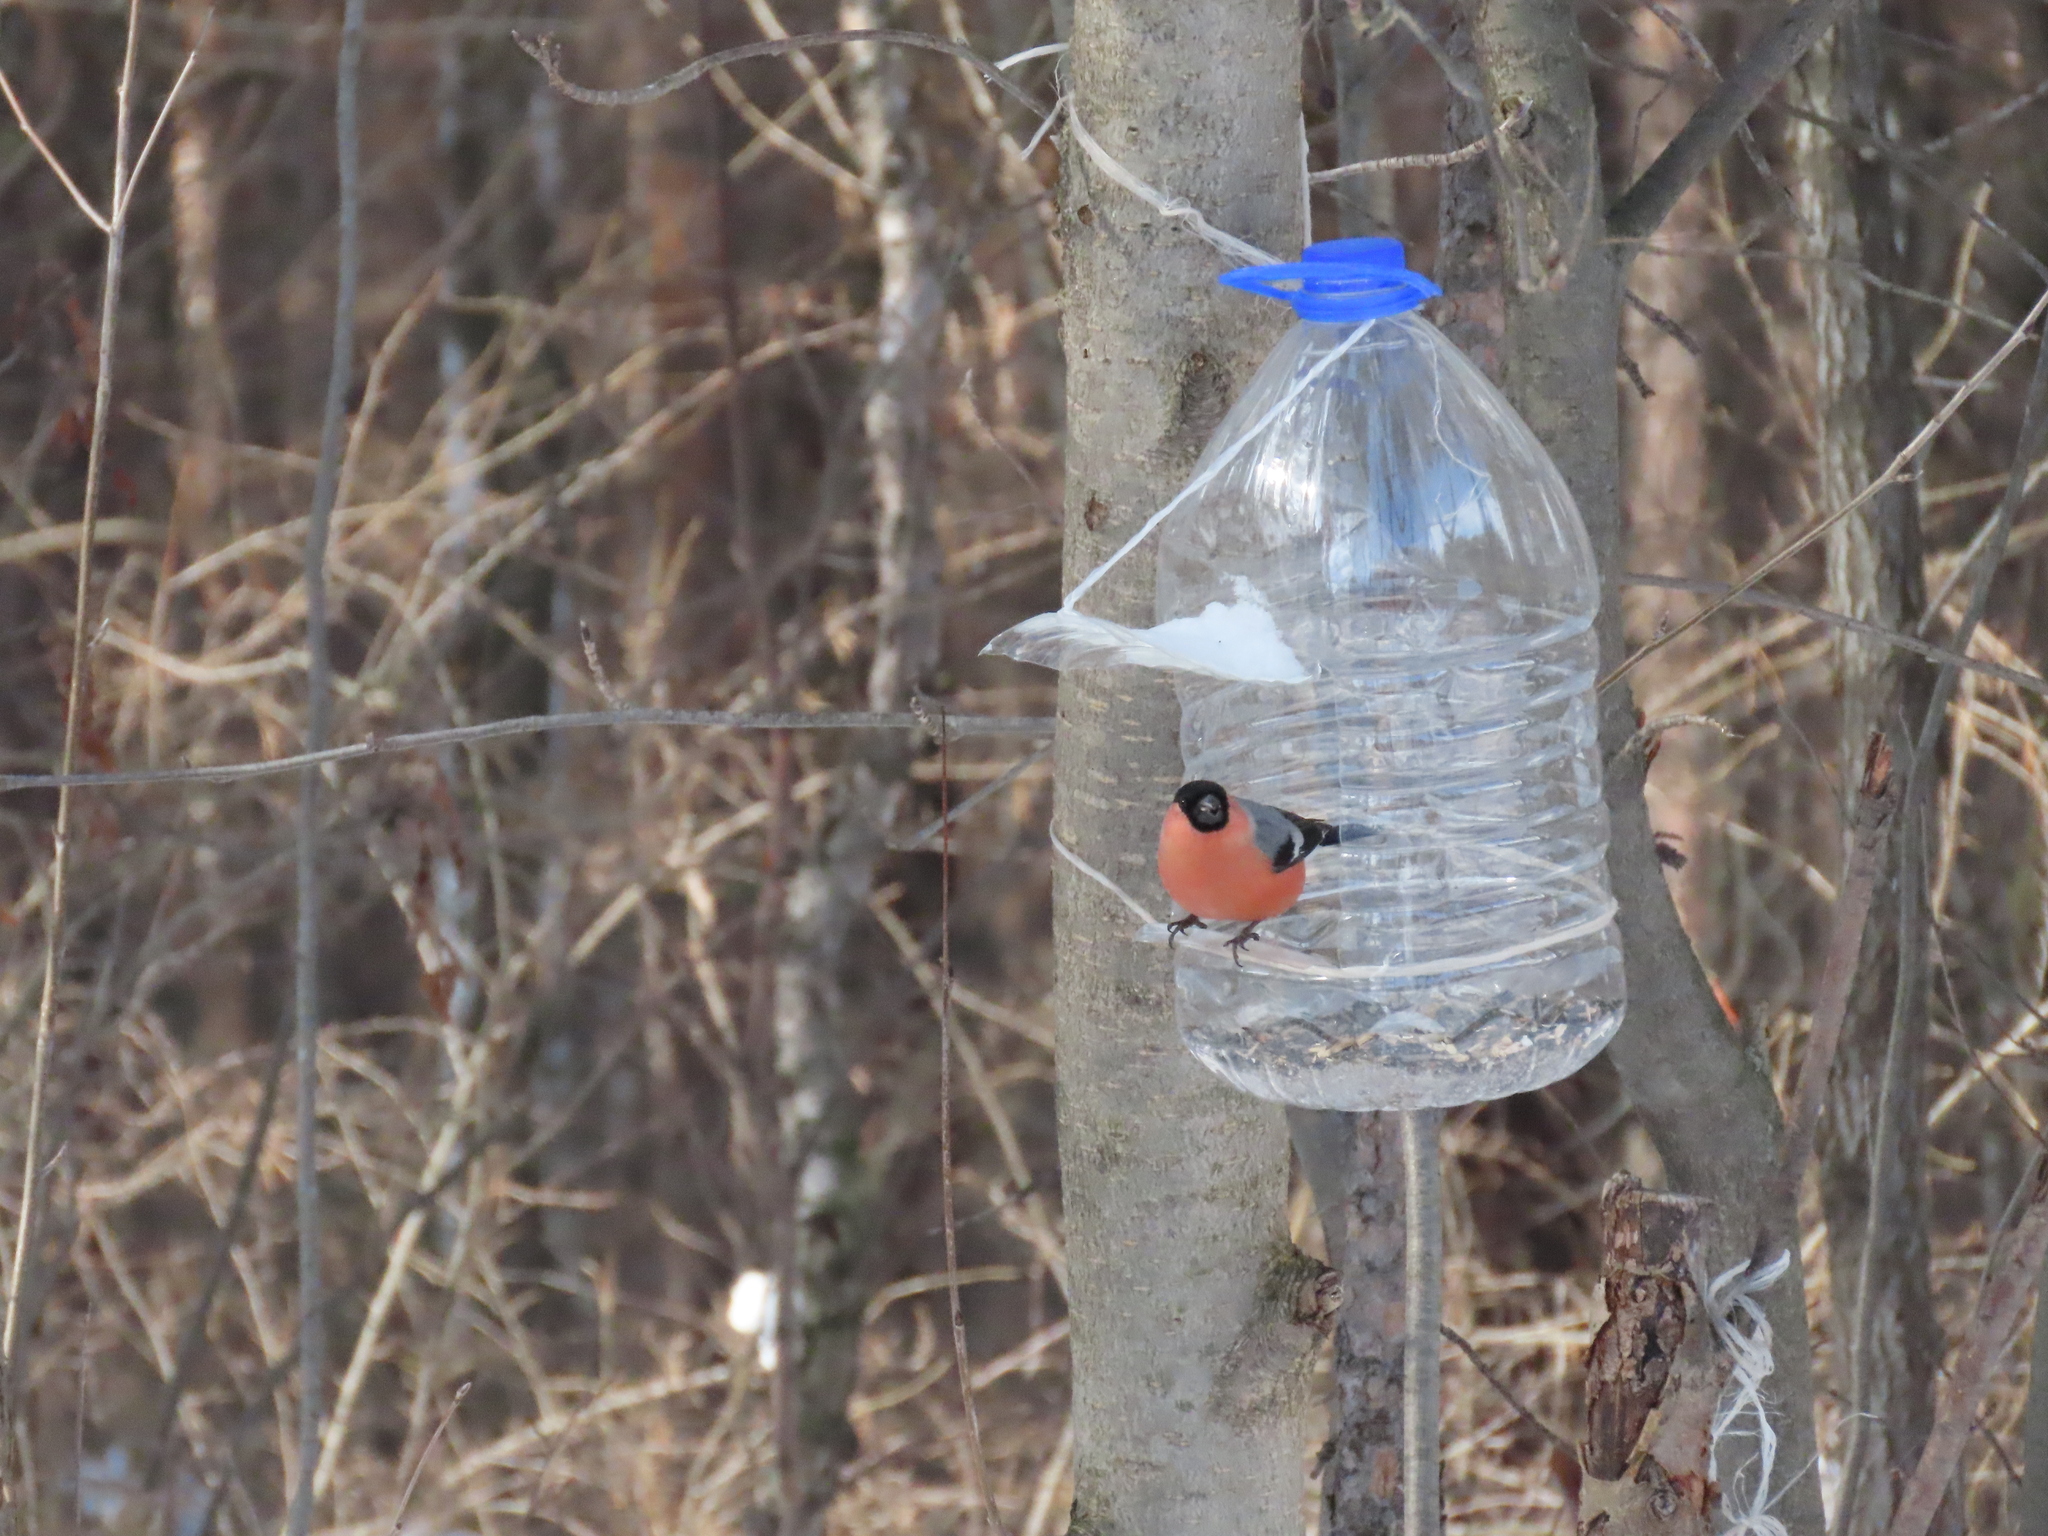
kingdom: Animalia
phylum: Chordata
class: Aves
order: Passeriformes
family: Fringillidae
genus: Pyrrhula
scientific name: Pyrrhula pyrrhula
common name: Eurasian bullfinch
